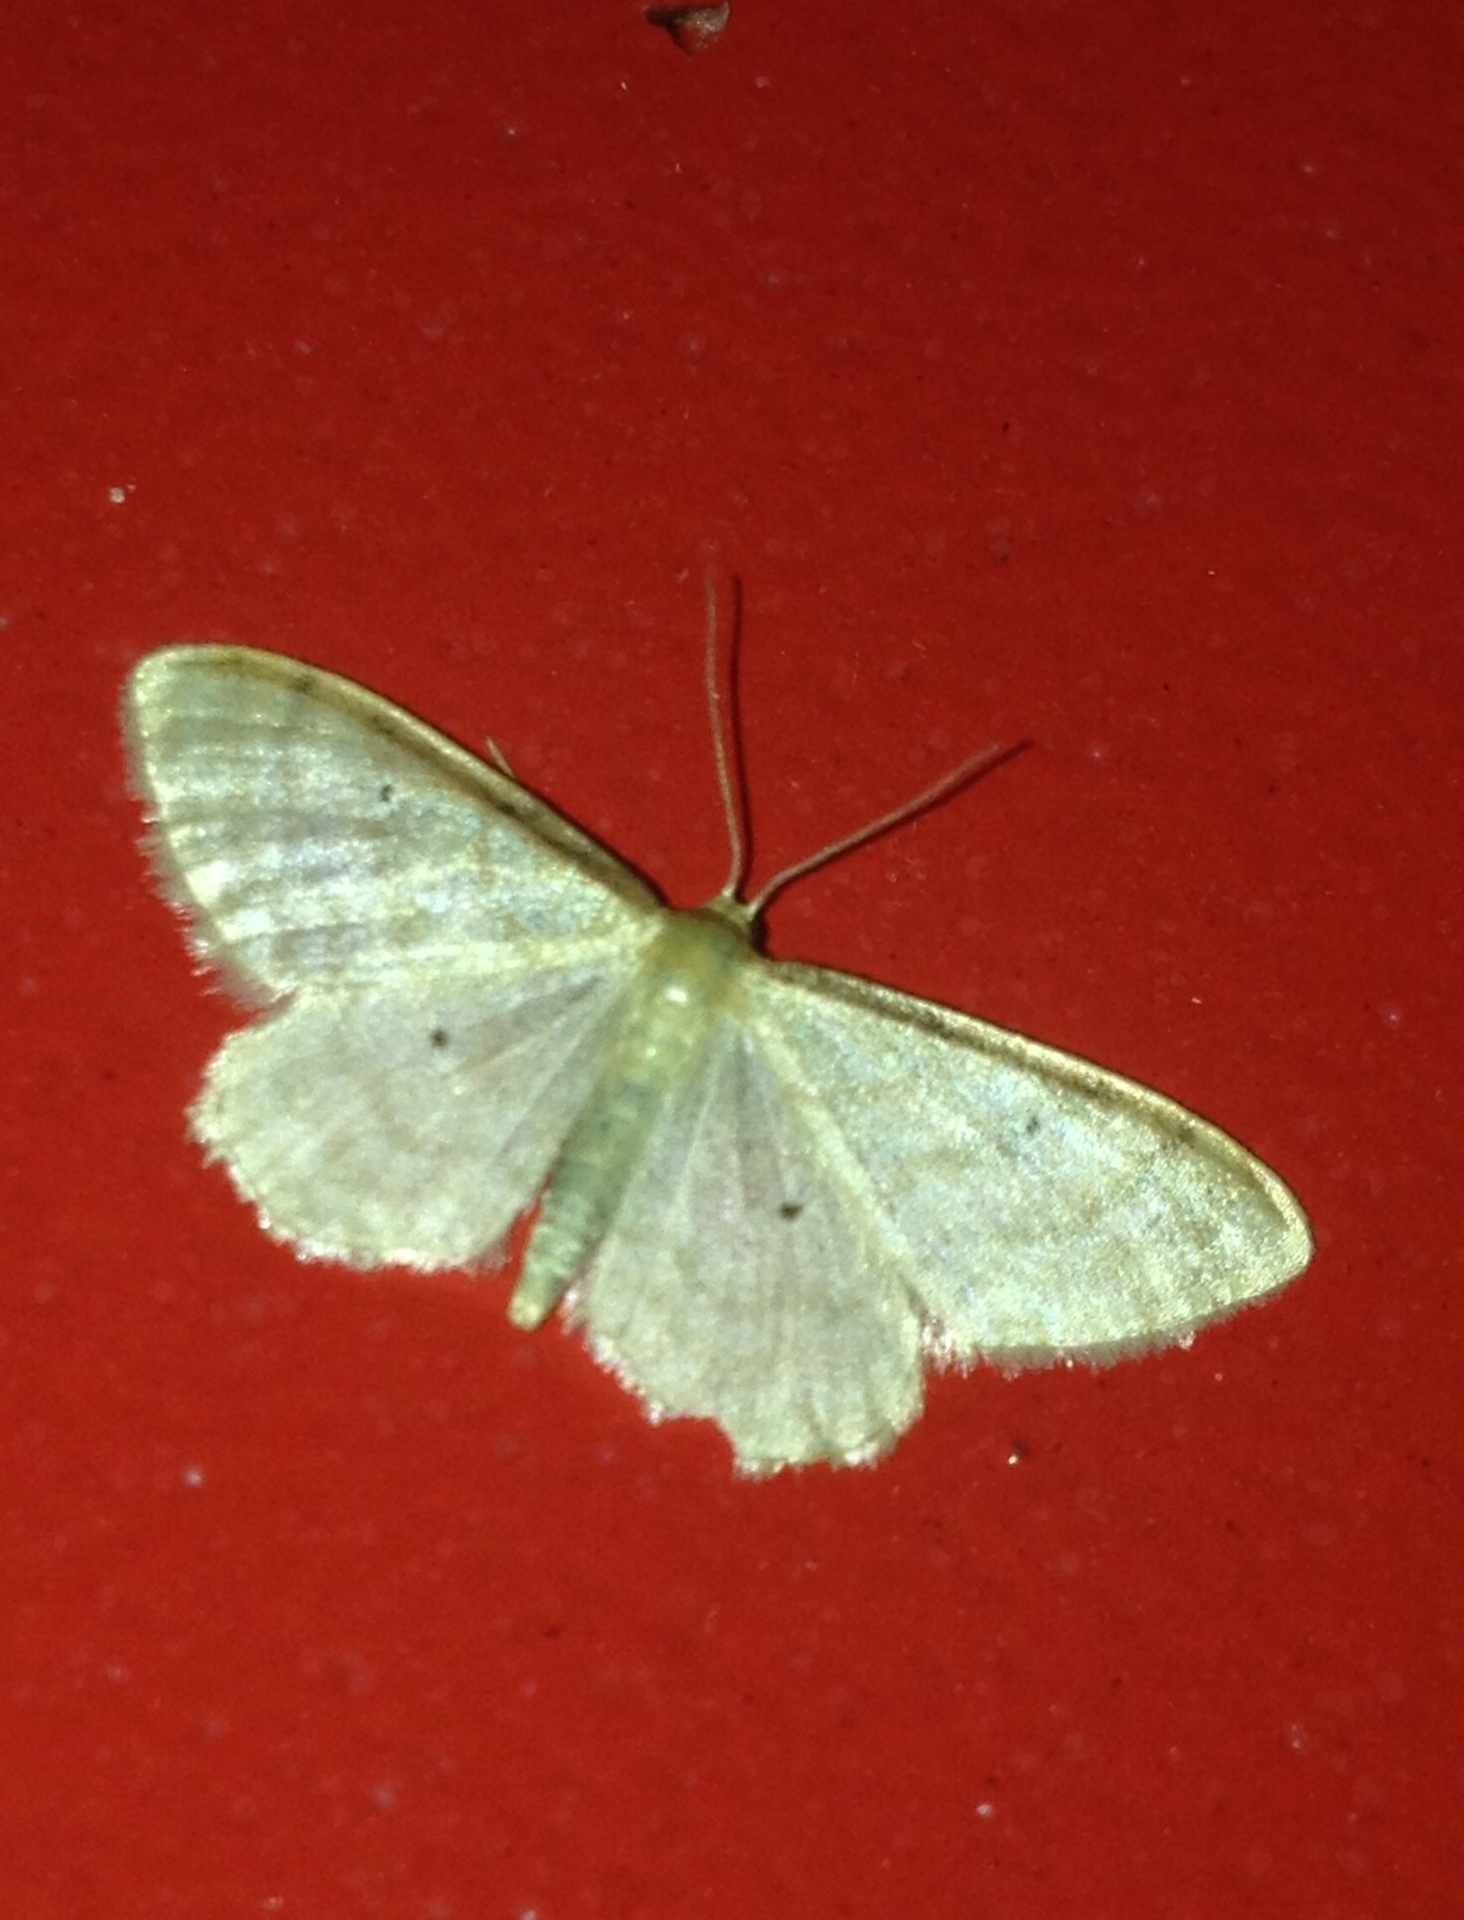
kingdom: Animalia
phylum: Arthropoda
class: Insecta
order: Lepidoptera
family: Geometridae
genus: Idaea
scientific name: Idaea humiliata
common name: Isle of wight wave
